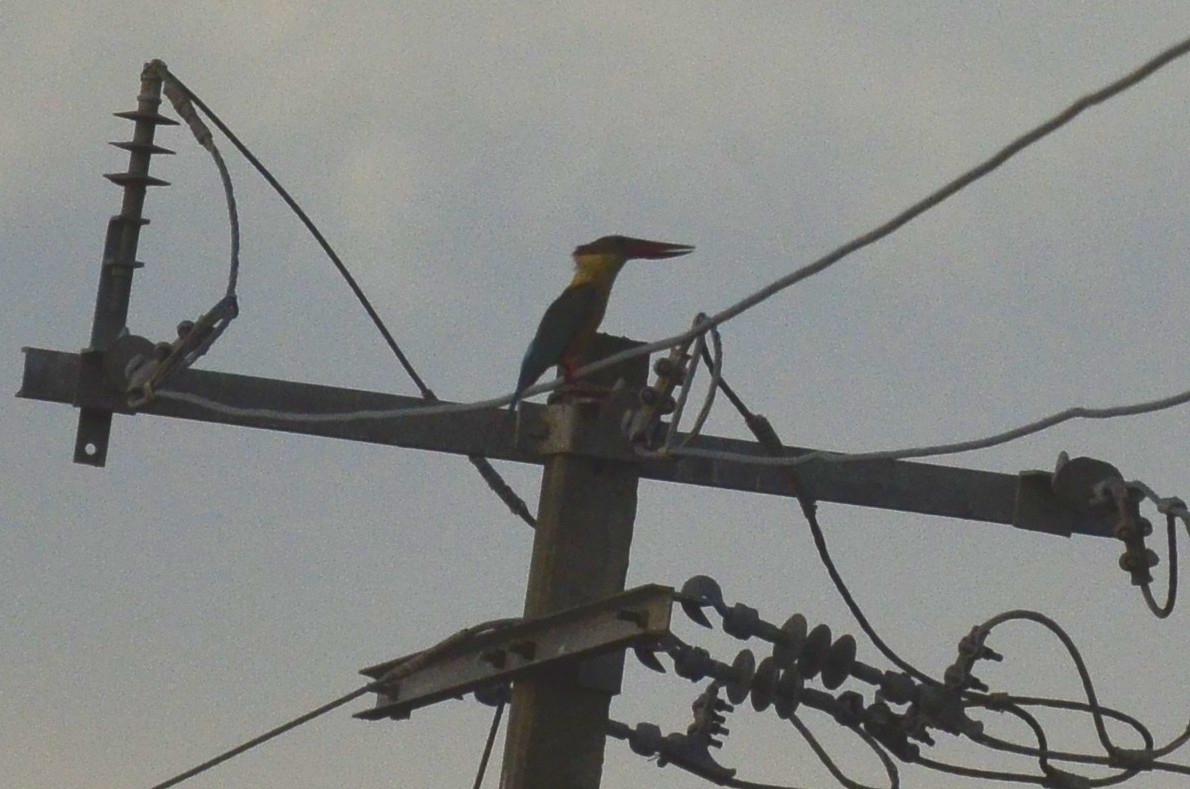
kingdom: Animalia
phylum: Chordata
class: Aves
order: Coraciiformes
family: Alcedinidae
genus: Pelargopsis
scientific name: Pelargopsis capensis
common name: Stork-billed kingfisher
